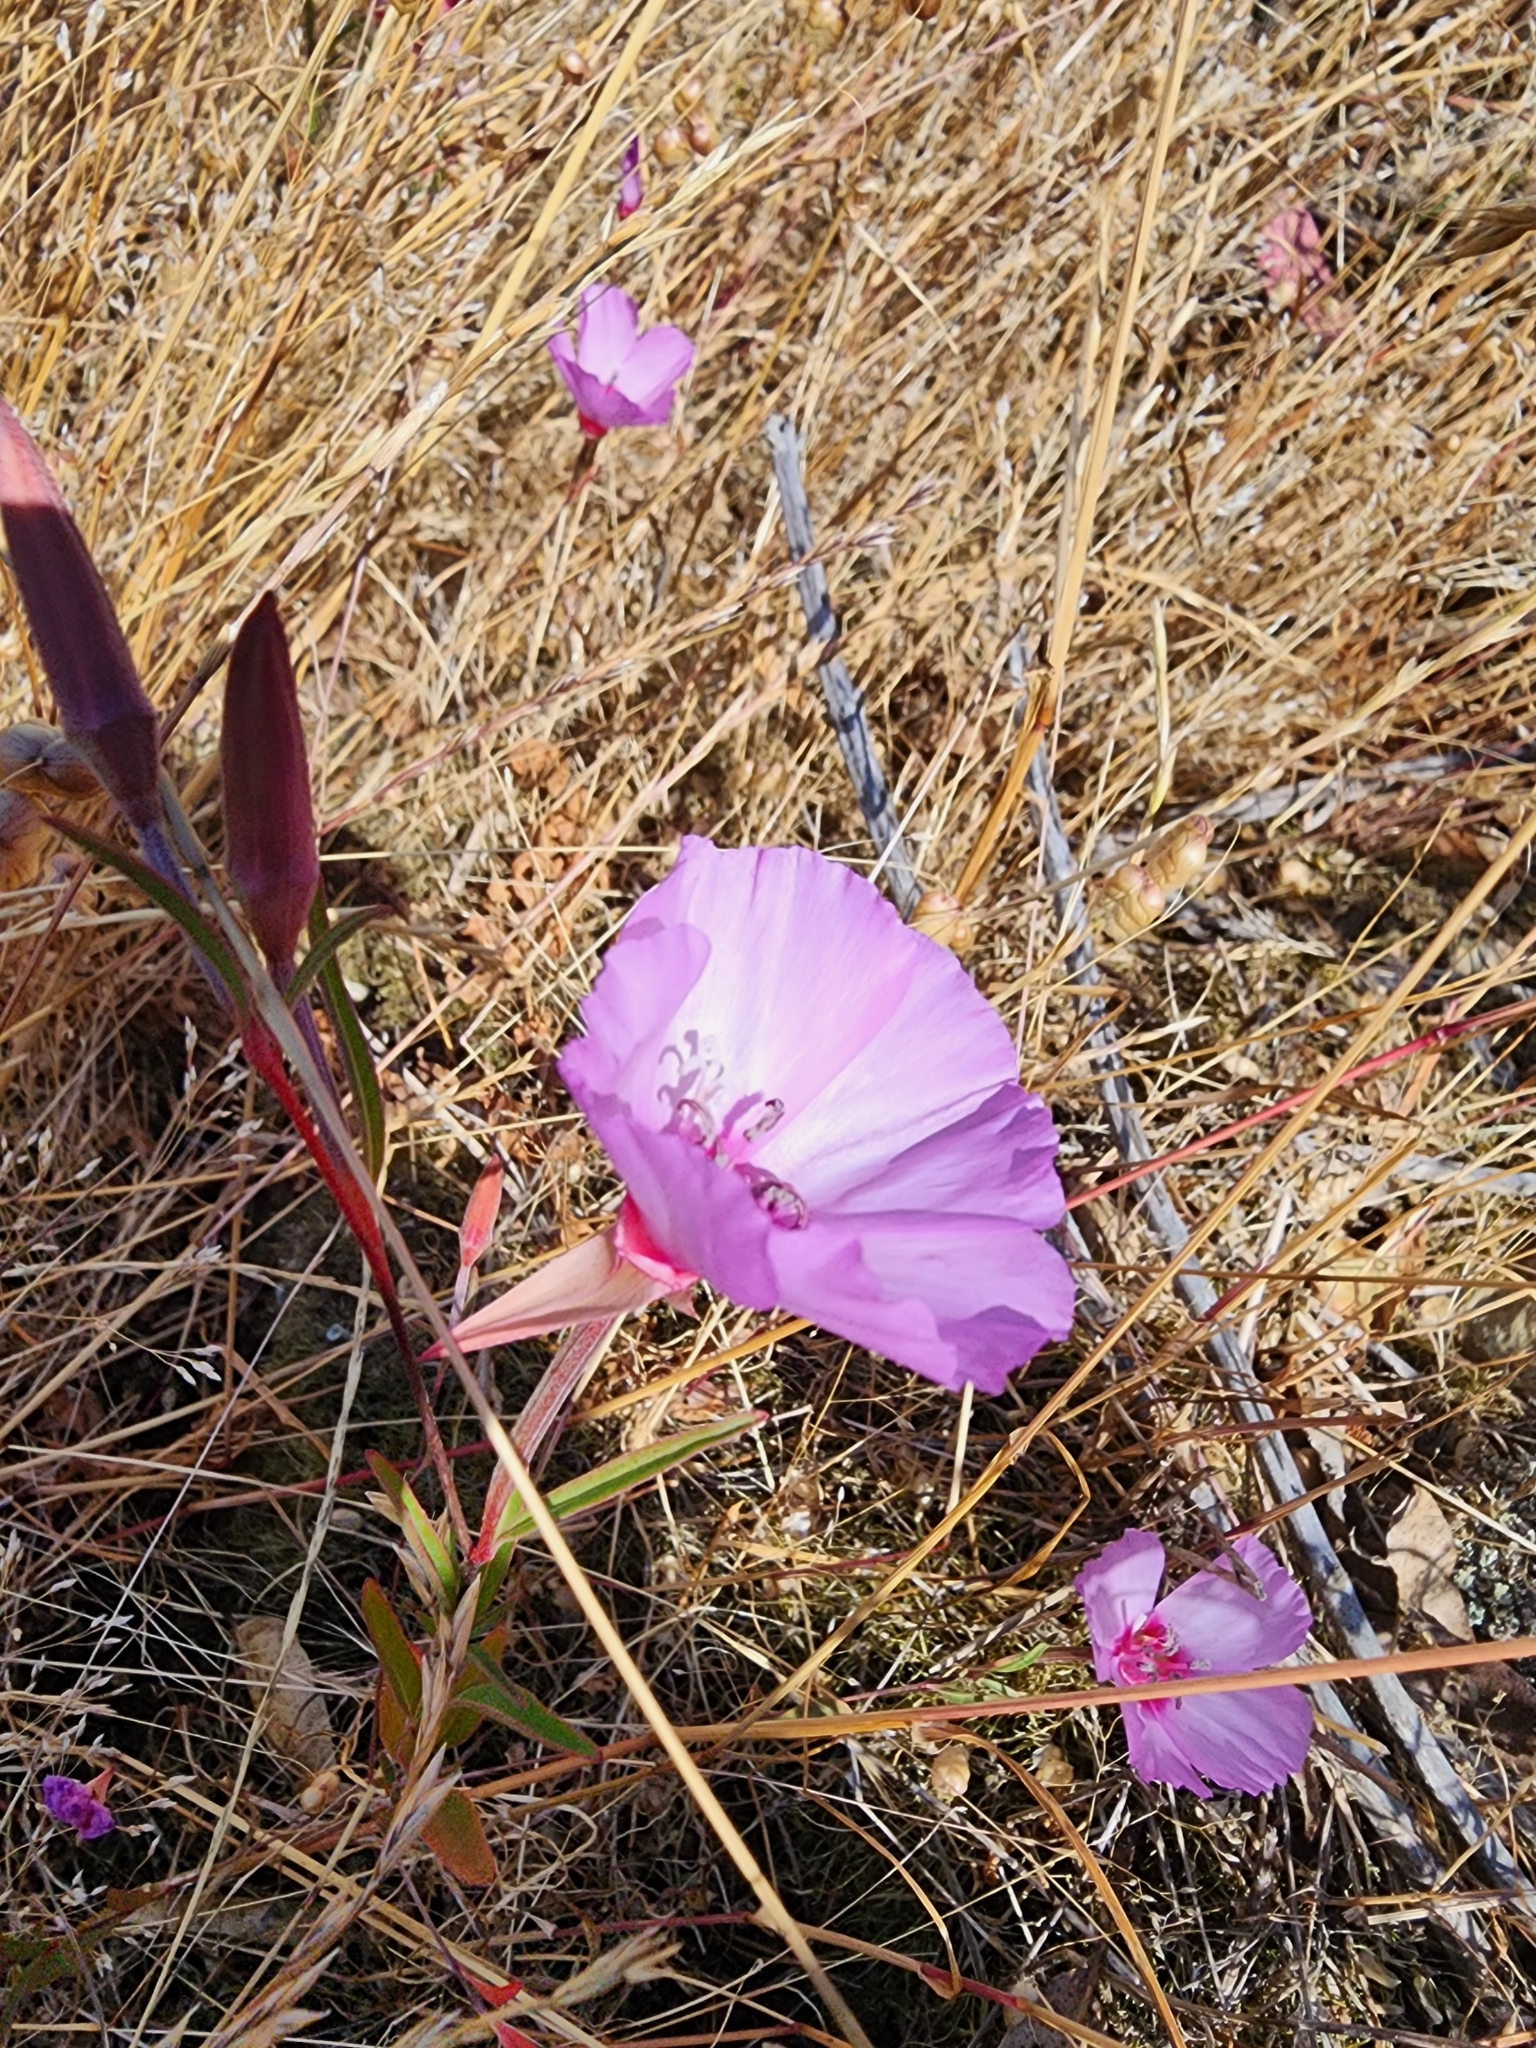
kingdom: Plantae
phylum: Tracheophyta
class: Magnoliopsida
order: Myrtales
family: Onagraceae
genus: Clarkia
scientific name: Clarkia rubicunda
